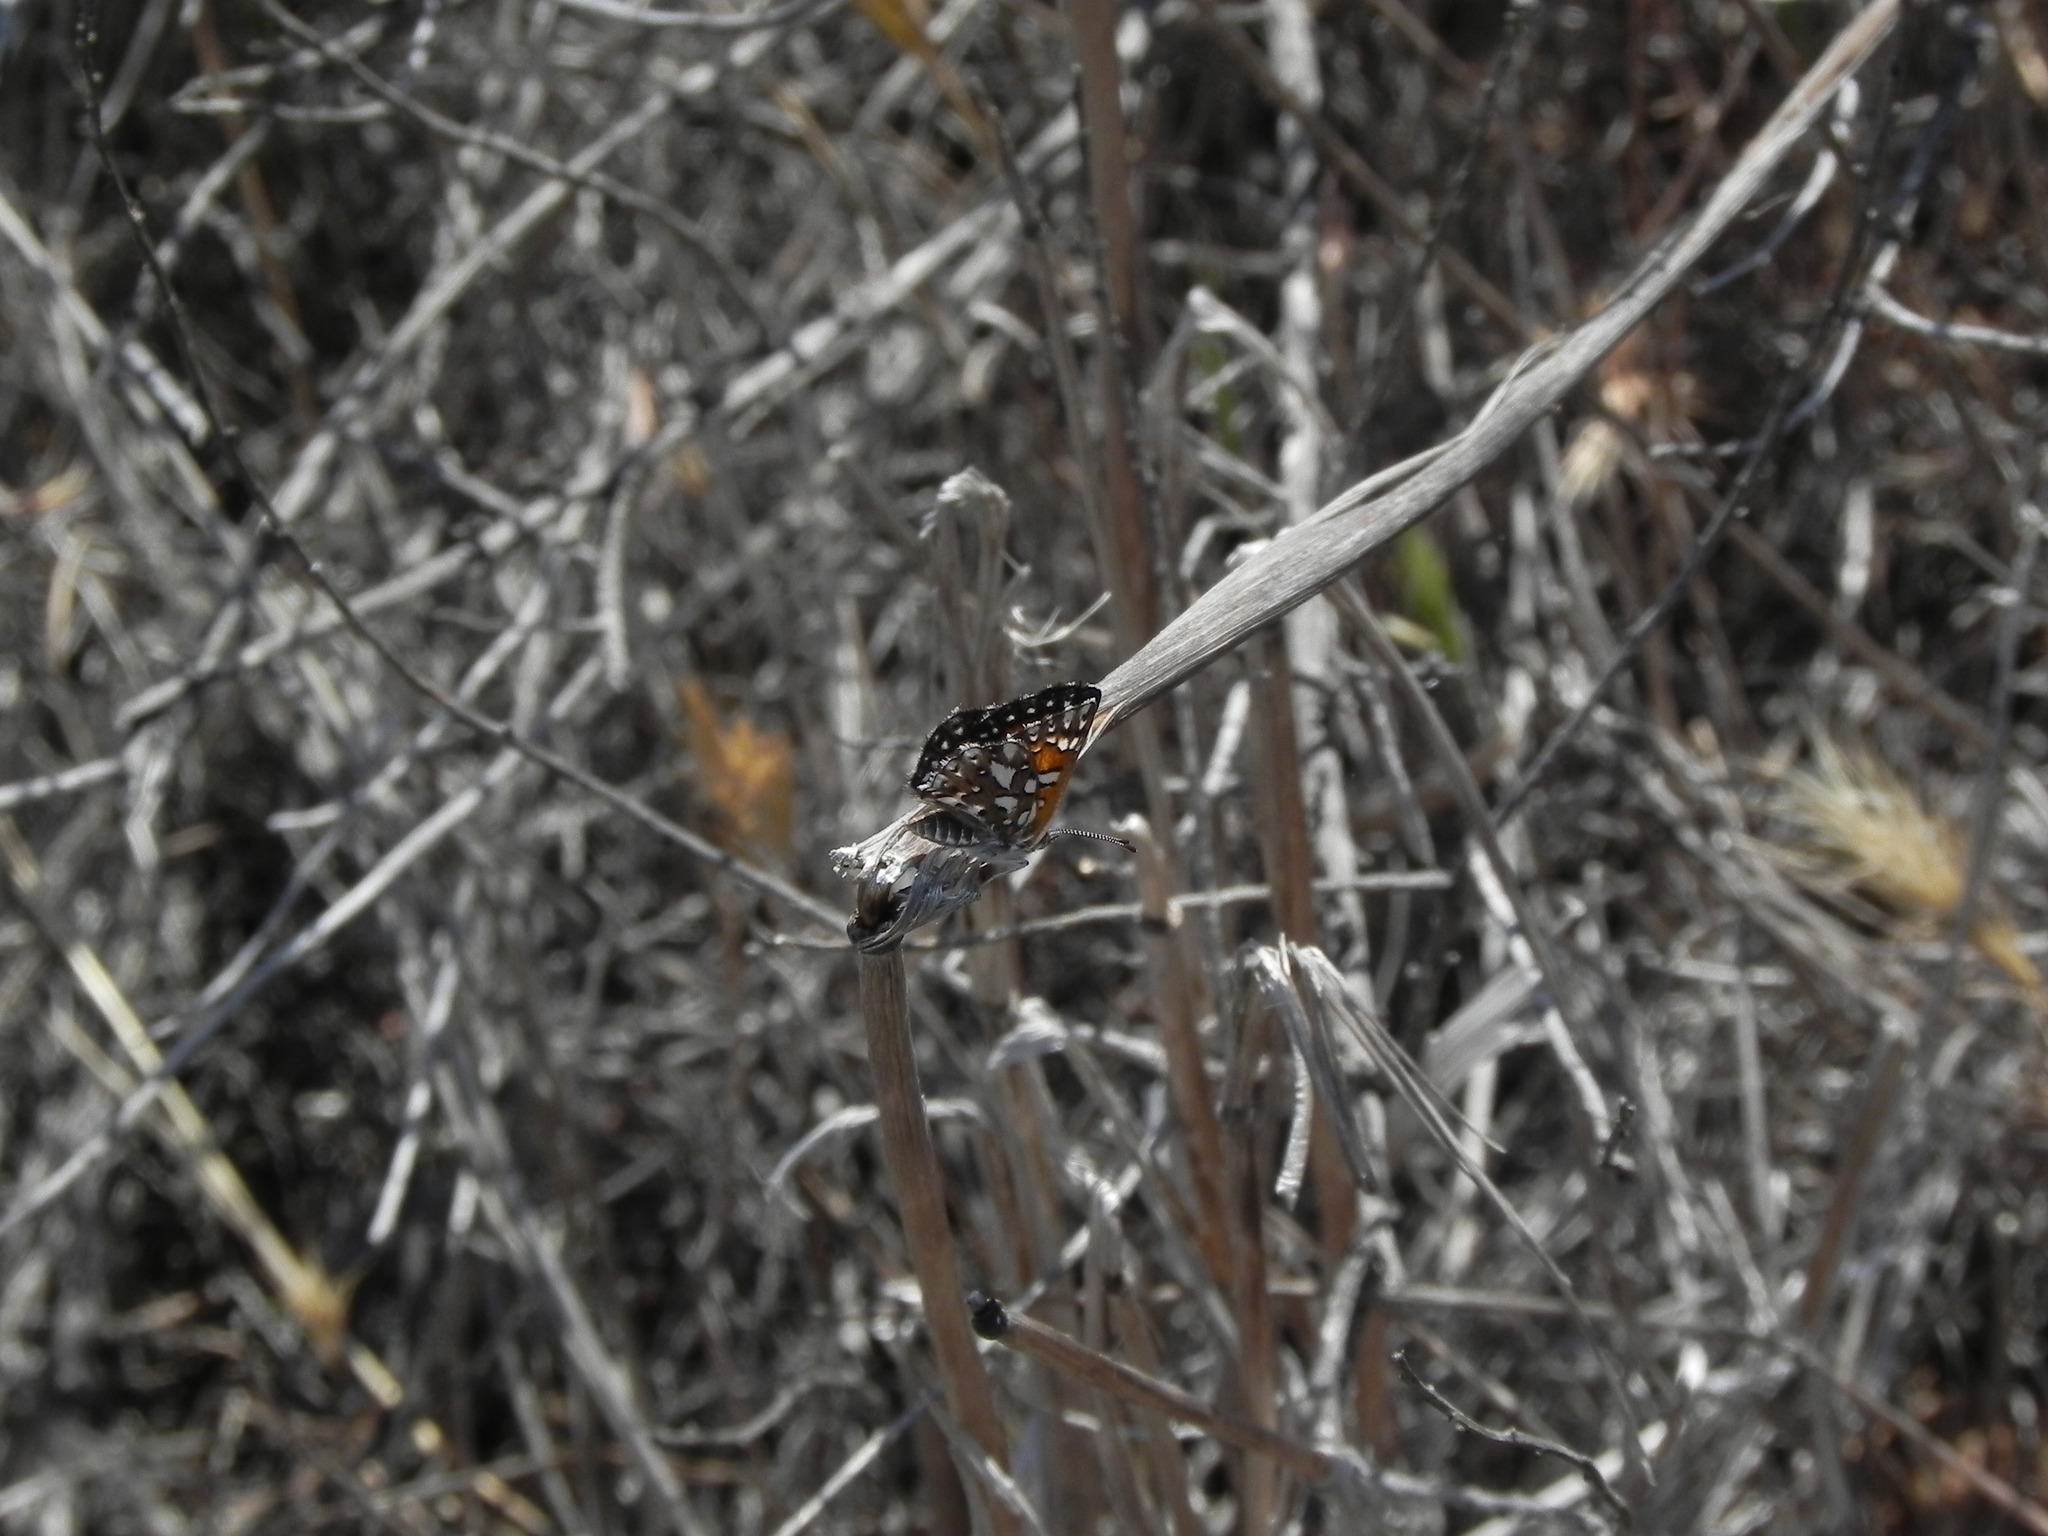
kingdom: Animalia
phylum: Arthropoda
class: Insecta
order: Lepidoptera
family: Riodinidae
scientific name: Riodinidae
